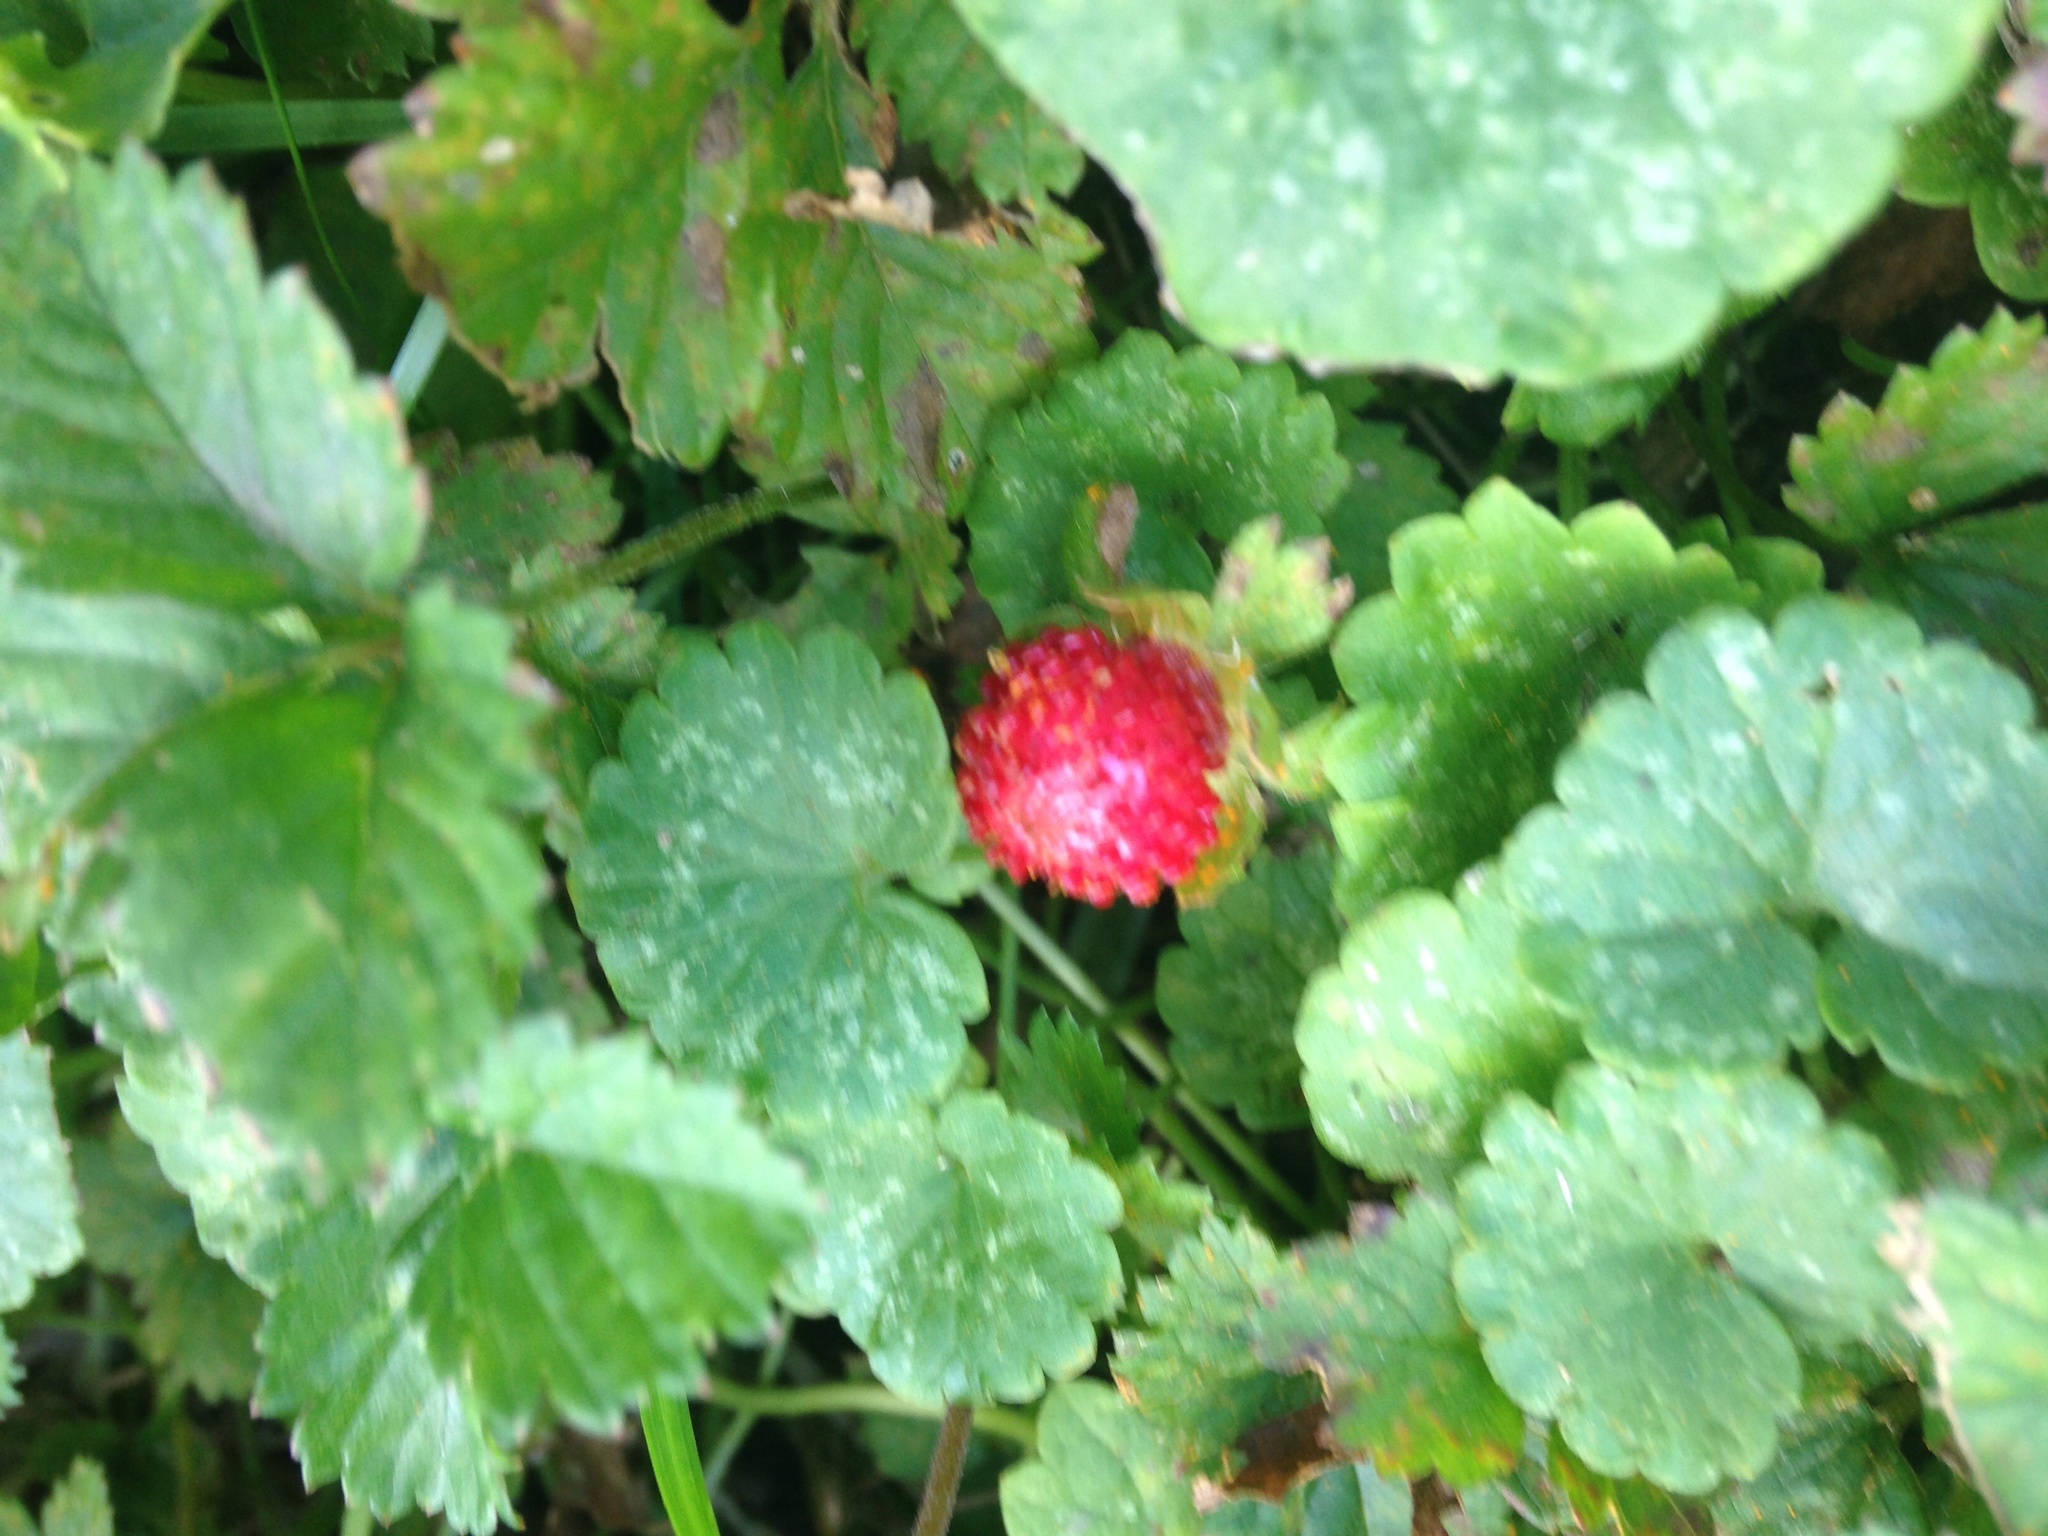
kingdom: Plantae
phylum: Tracheophyta
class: Magnoliopsida
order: Rosales
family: Rosaceae
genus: Potentilla
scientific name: Potentilla indica
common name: Yellow-flowered strawberry
